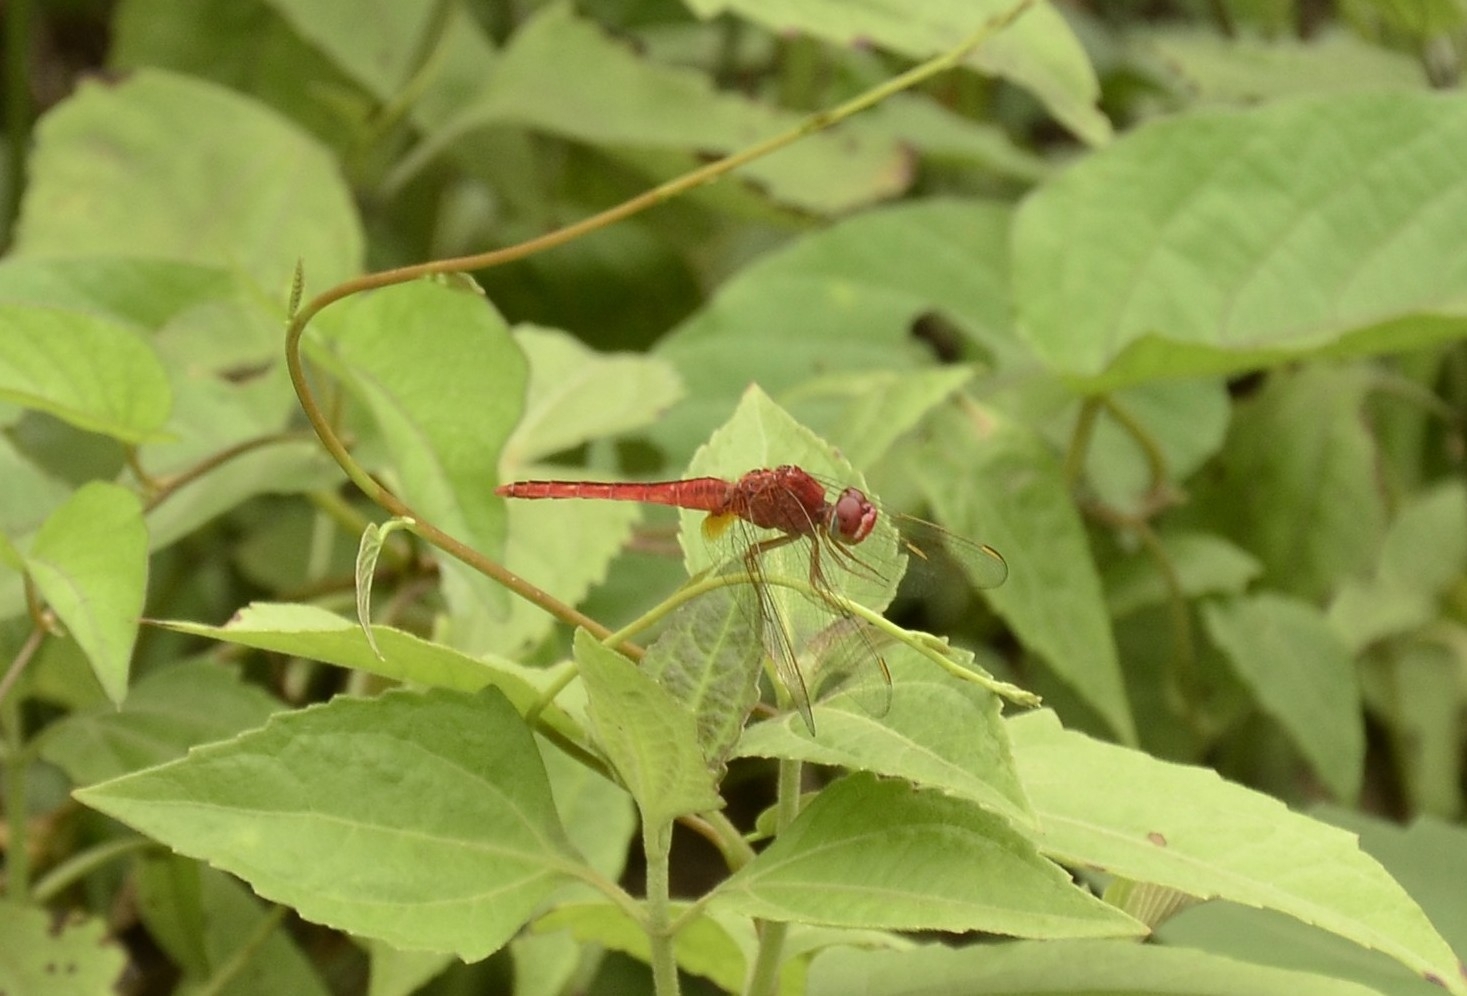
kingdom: Animalia
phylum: Arthropoda
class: Insecta
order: Odonata
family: Libellulidae
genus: Crocothemis
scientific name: Crocothemis servilia
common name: Scarlet skimmer
